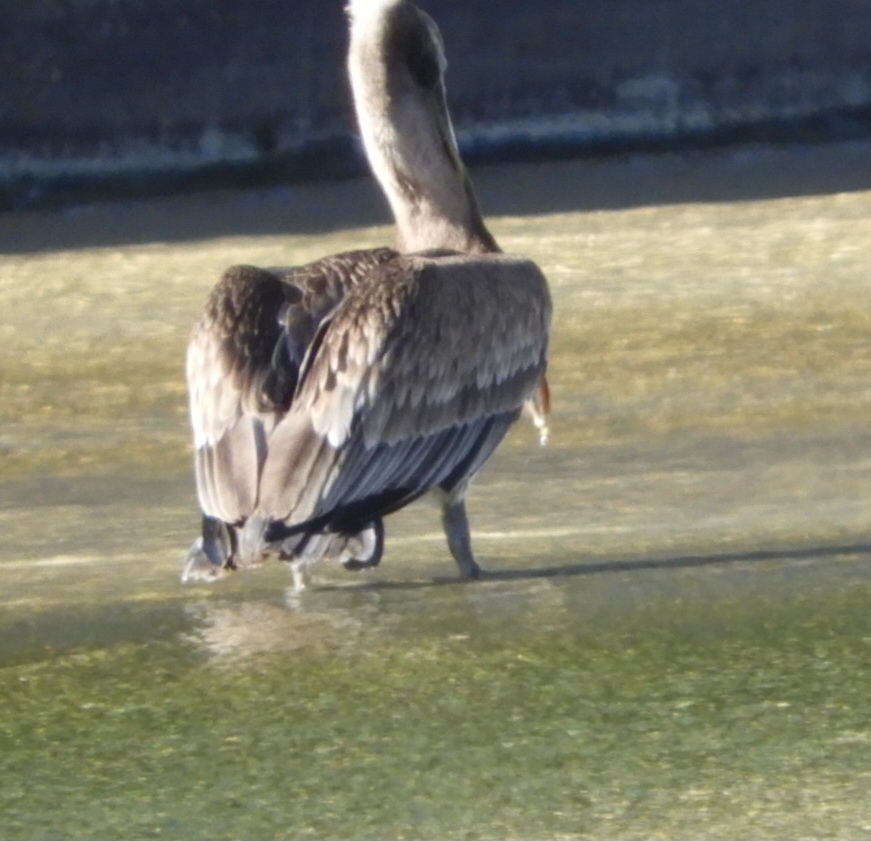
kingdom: Animalia
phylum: Chordata
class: Aves
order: Pelecaniformes
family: Pelecanidae
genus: Pelecanus
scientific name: Pelecanus occidentalis
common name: Brown pelican
